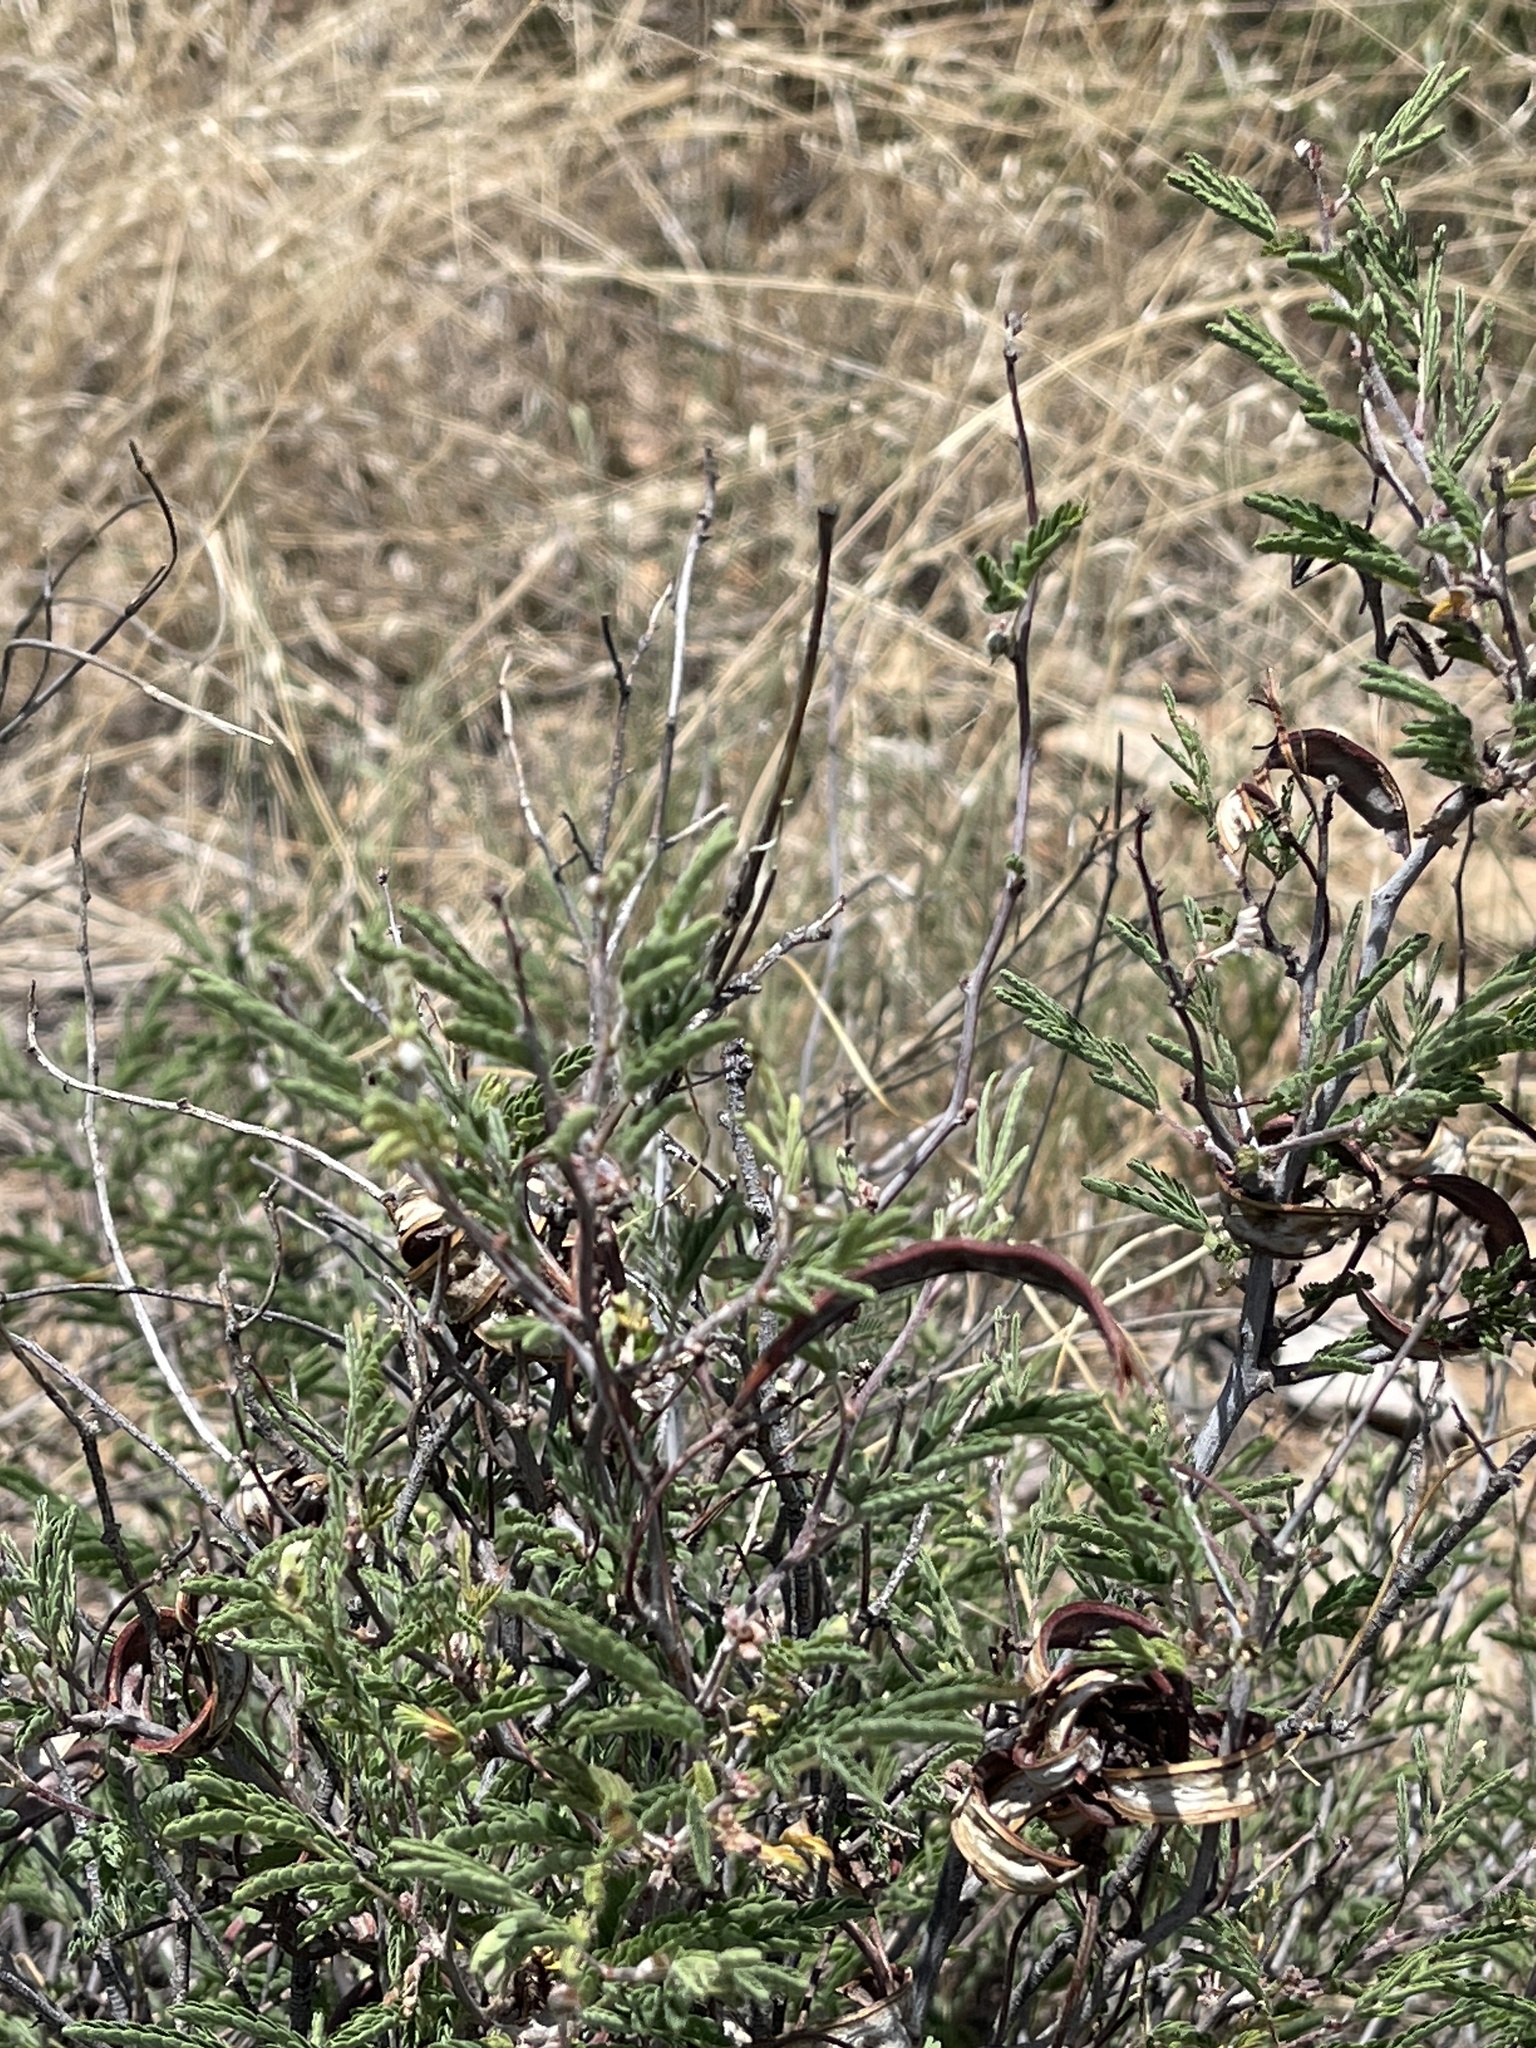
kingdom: Plantae
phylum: Tracheophyta
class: Magnoliopsida
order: Fabales
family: Fabaceae
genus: Calliandra
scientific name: Calliandra eriophylla
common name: Fairy-duster
